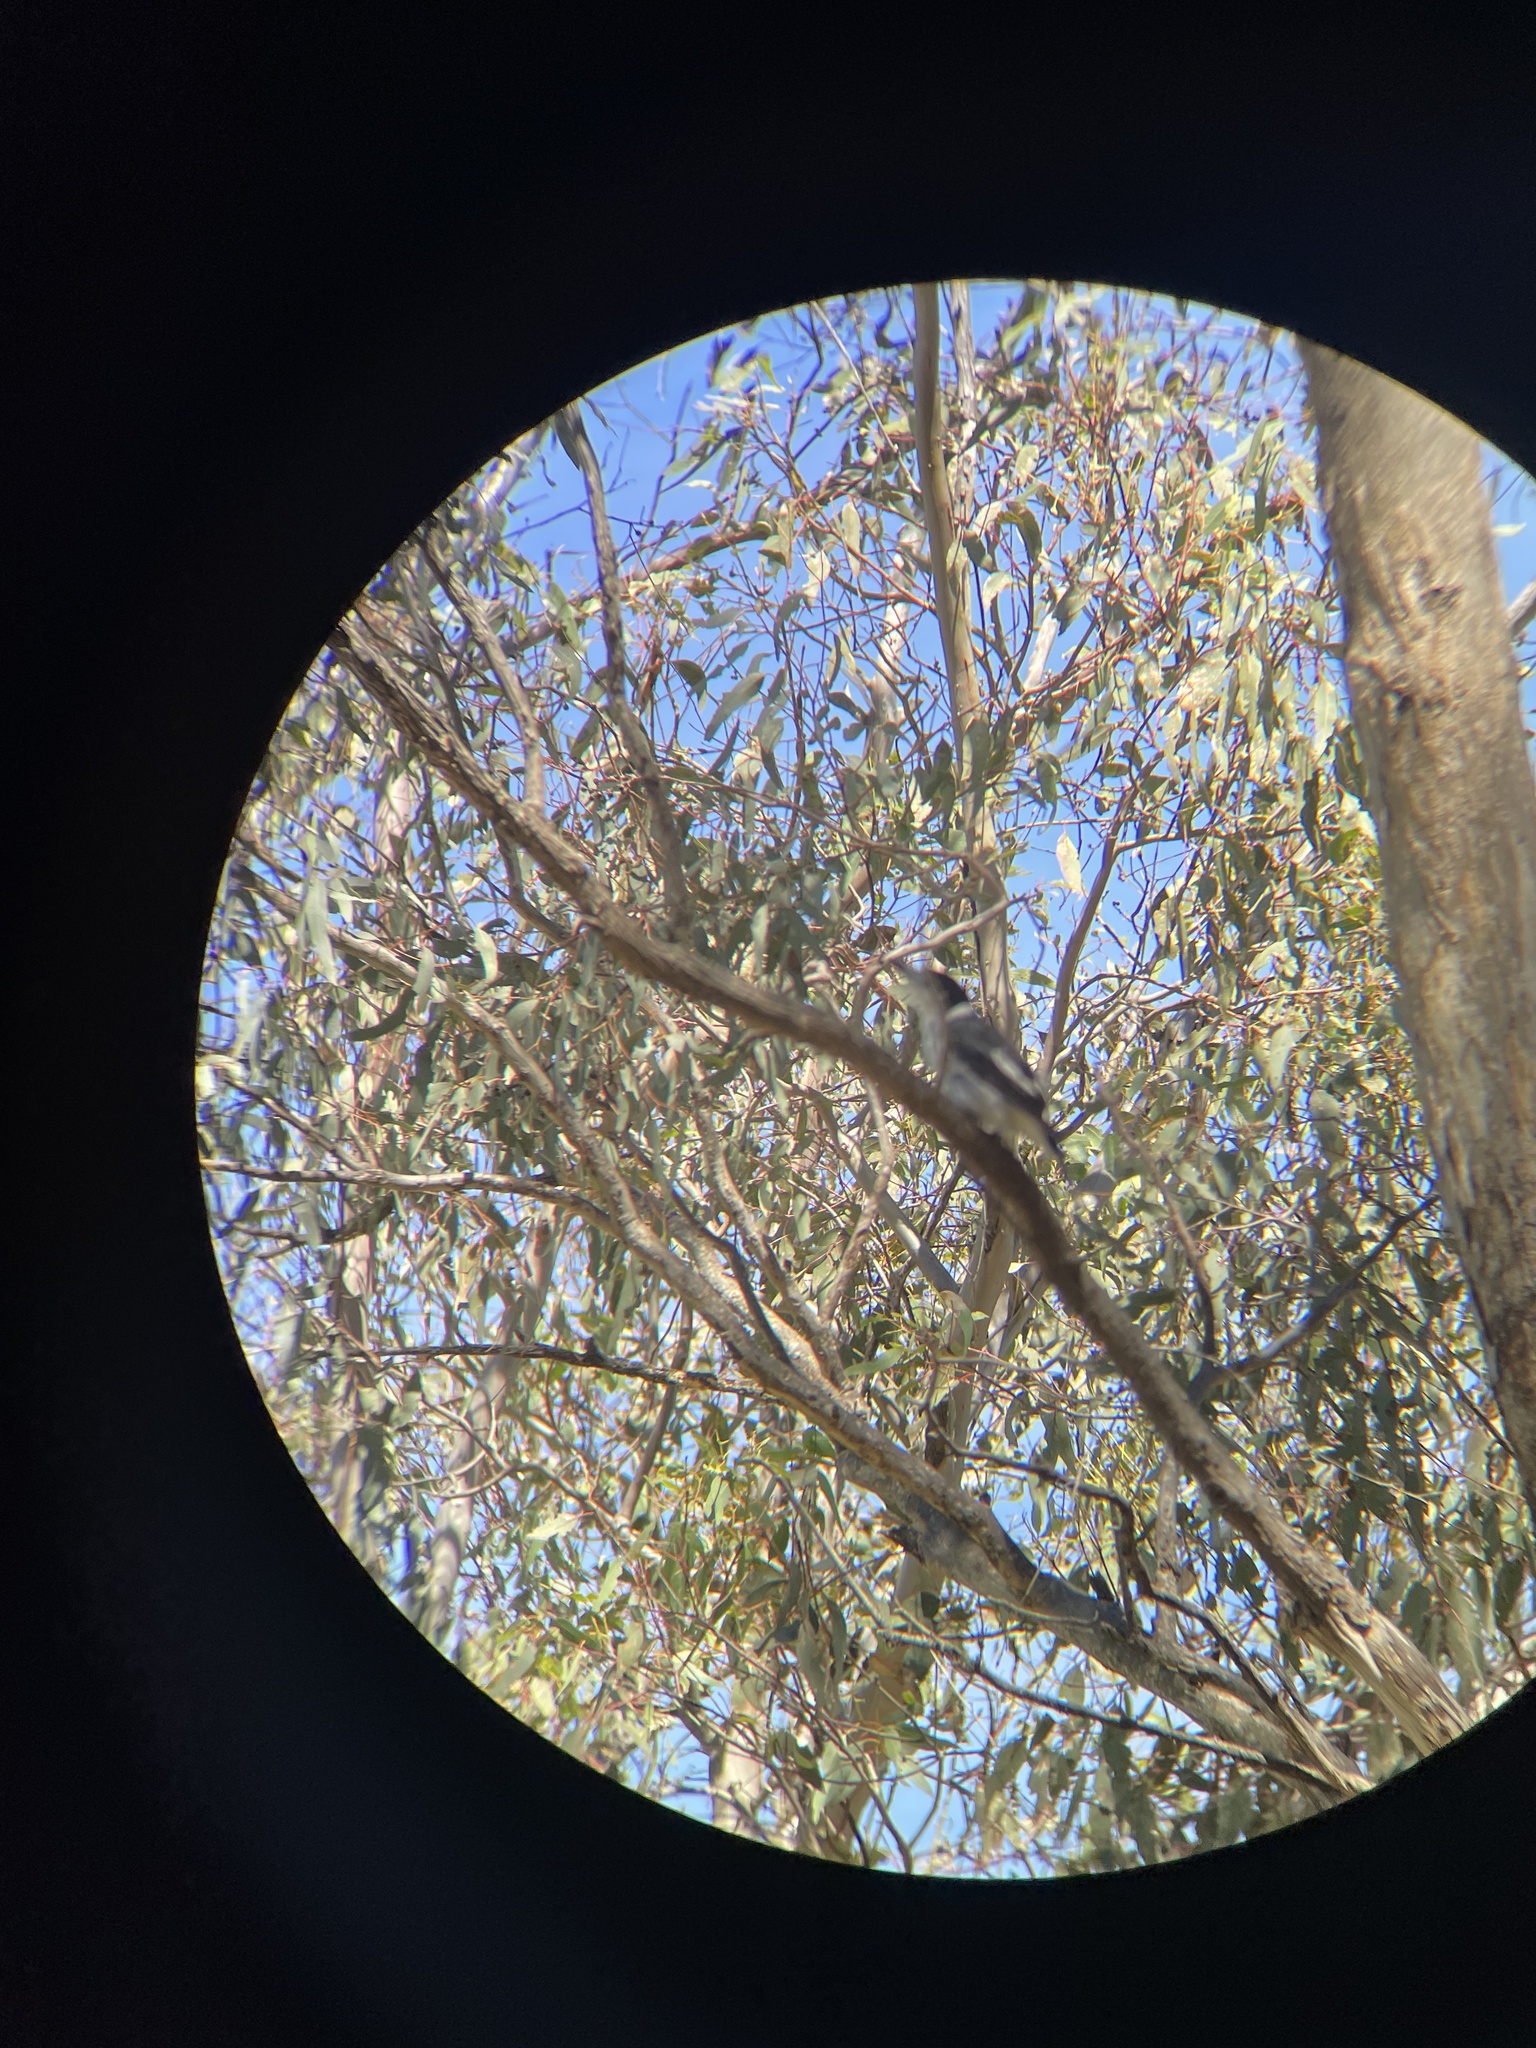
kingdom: Animalia
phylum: Chordata
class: Aves
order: Passeriformes
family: Cracticidae
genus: Cracticus
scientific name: Cracticus torquatus
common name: Grey butcherbird
